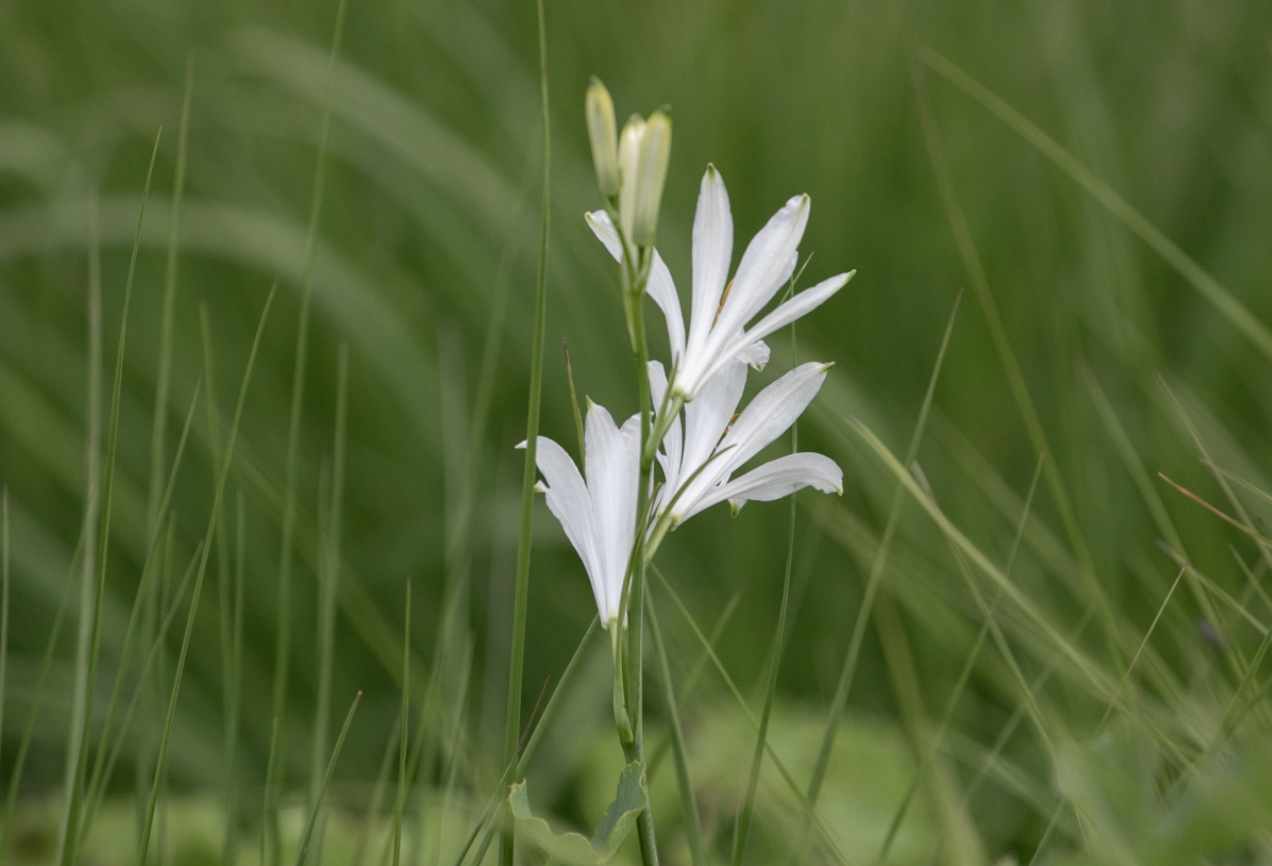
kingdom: Plantae
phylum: Tracheophyta
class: Liliopsida
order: Asparagales
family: Asparagaceae
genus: Paradisea
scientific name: Paradisea liliastrum
